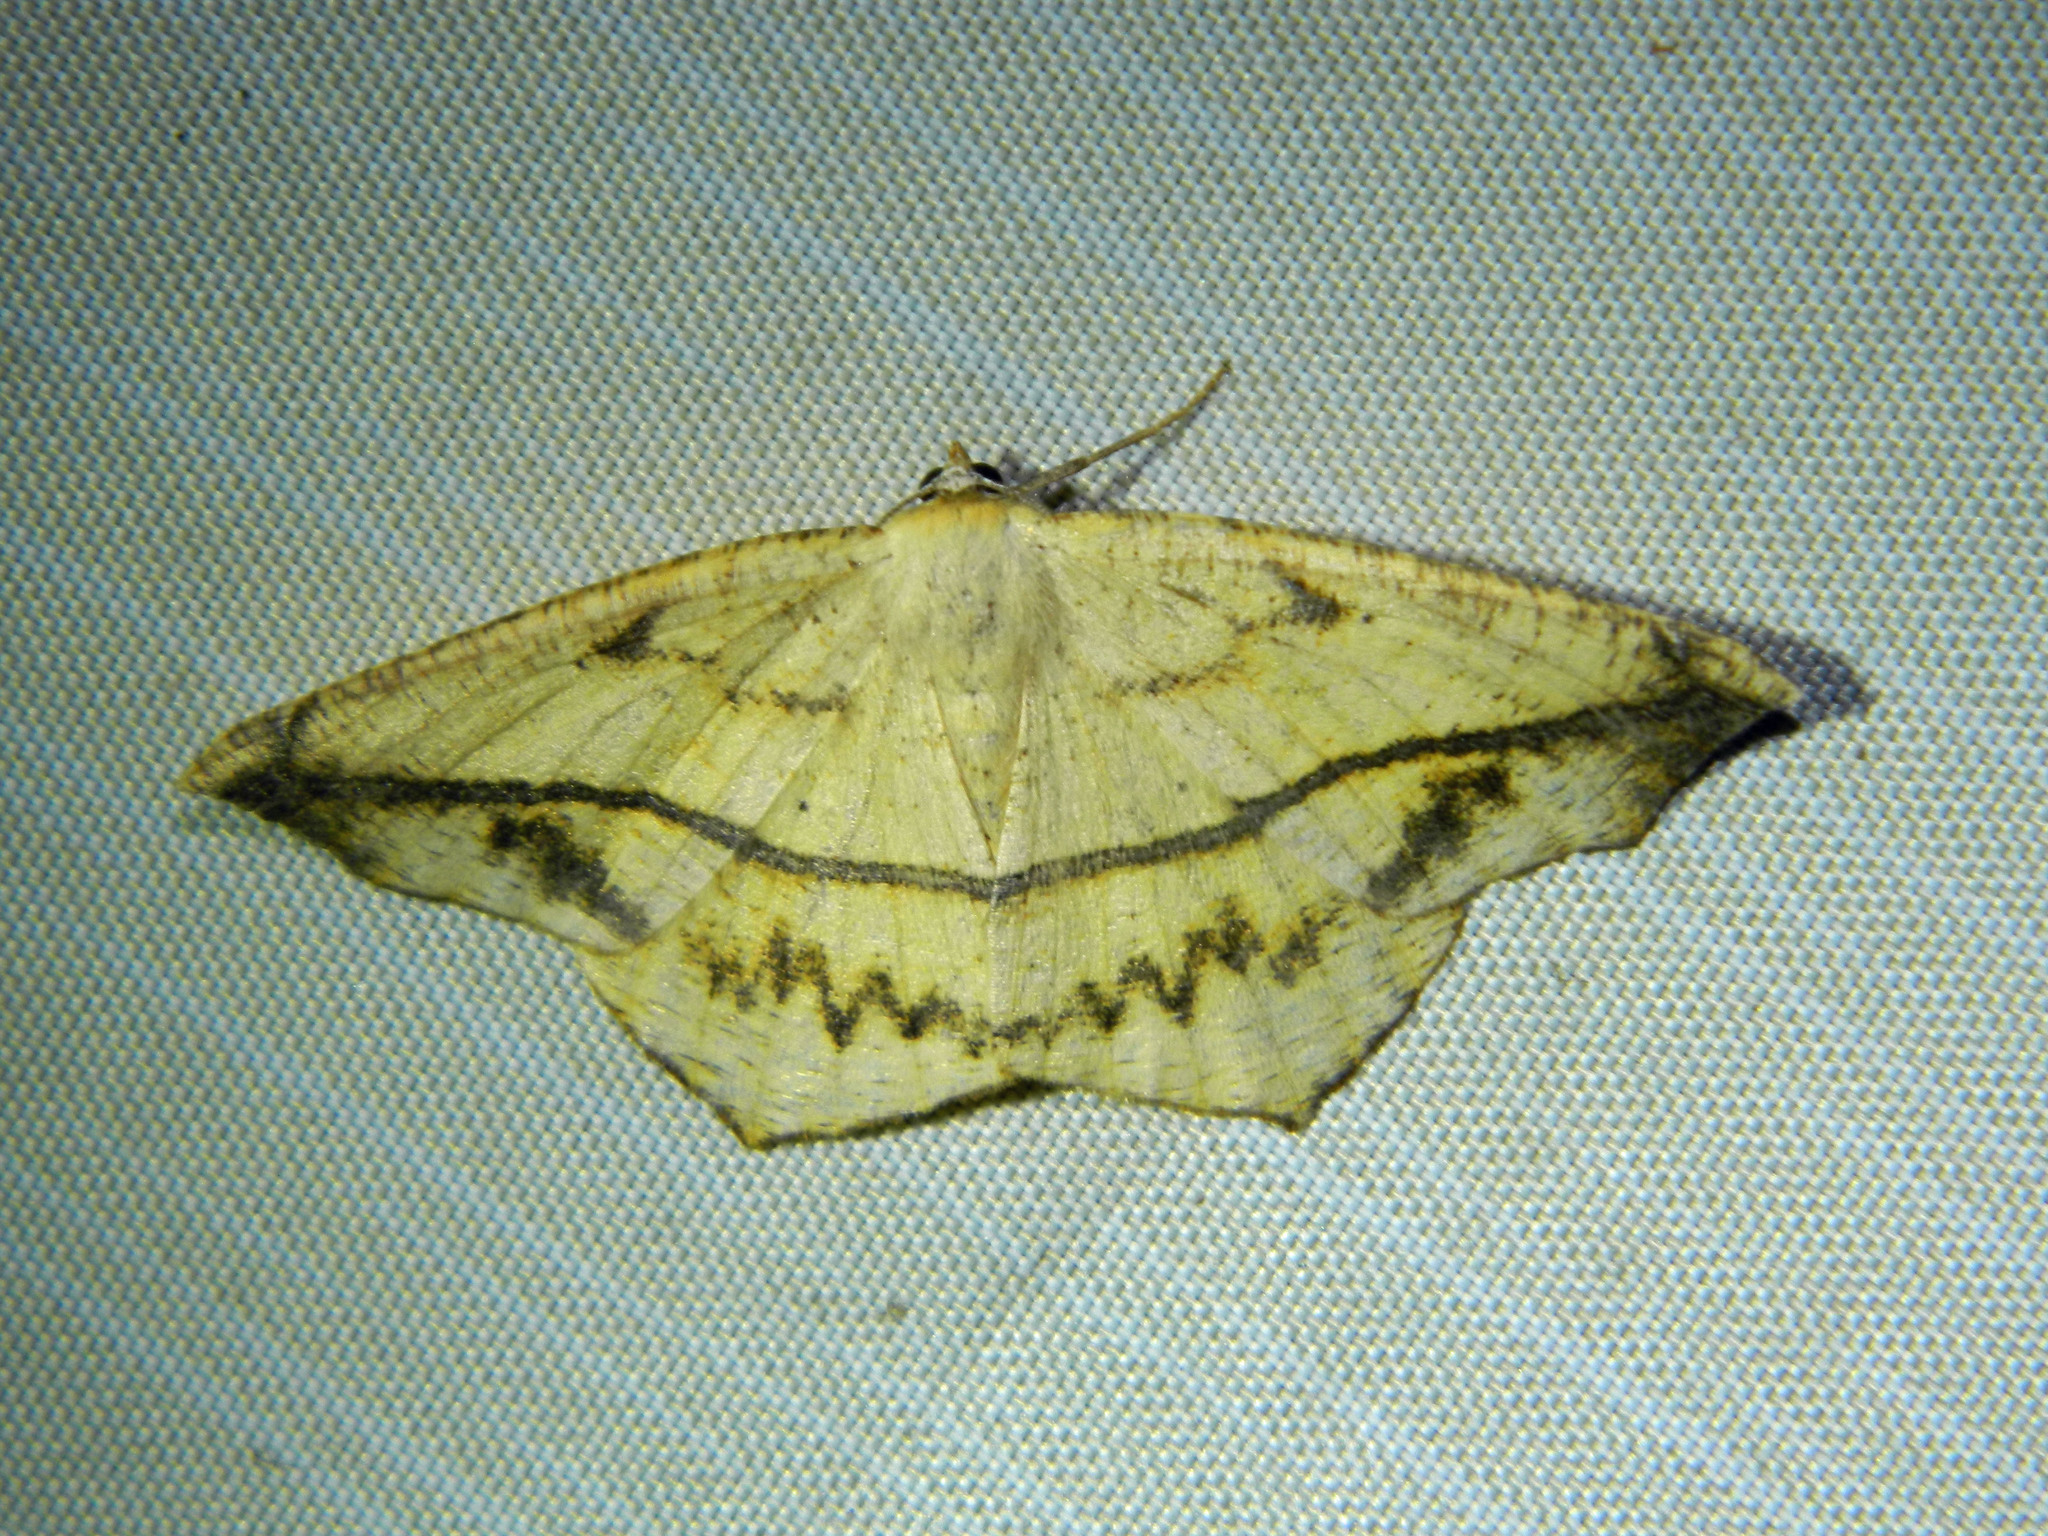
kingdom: Animalia
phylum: Arthropoda
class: Insecta
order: Lepidoptera
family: Geometridae
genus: Prochoerodes
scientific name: Prochoerodes lineola
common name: Large maple spanworm
